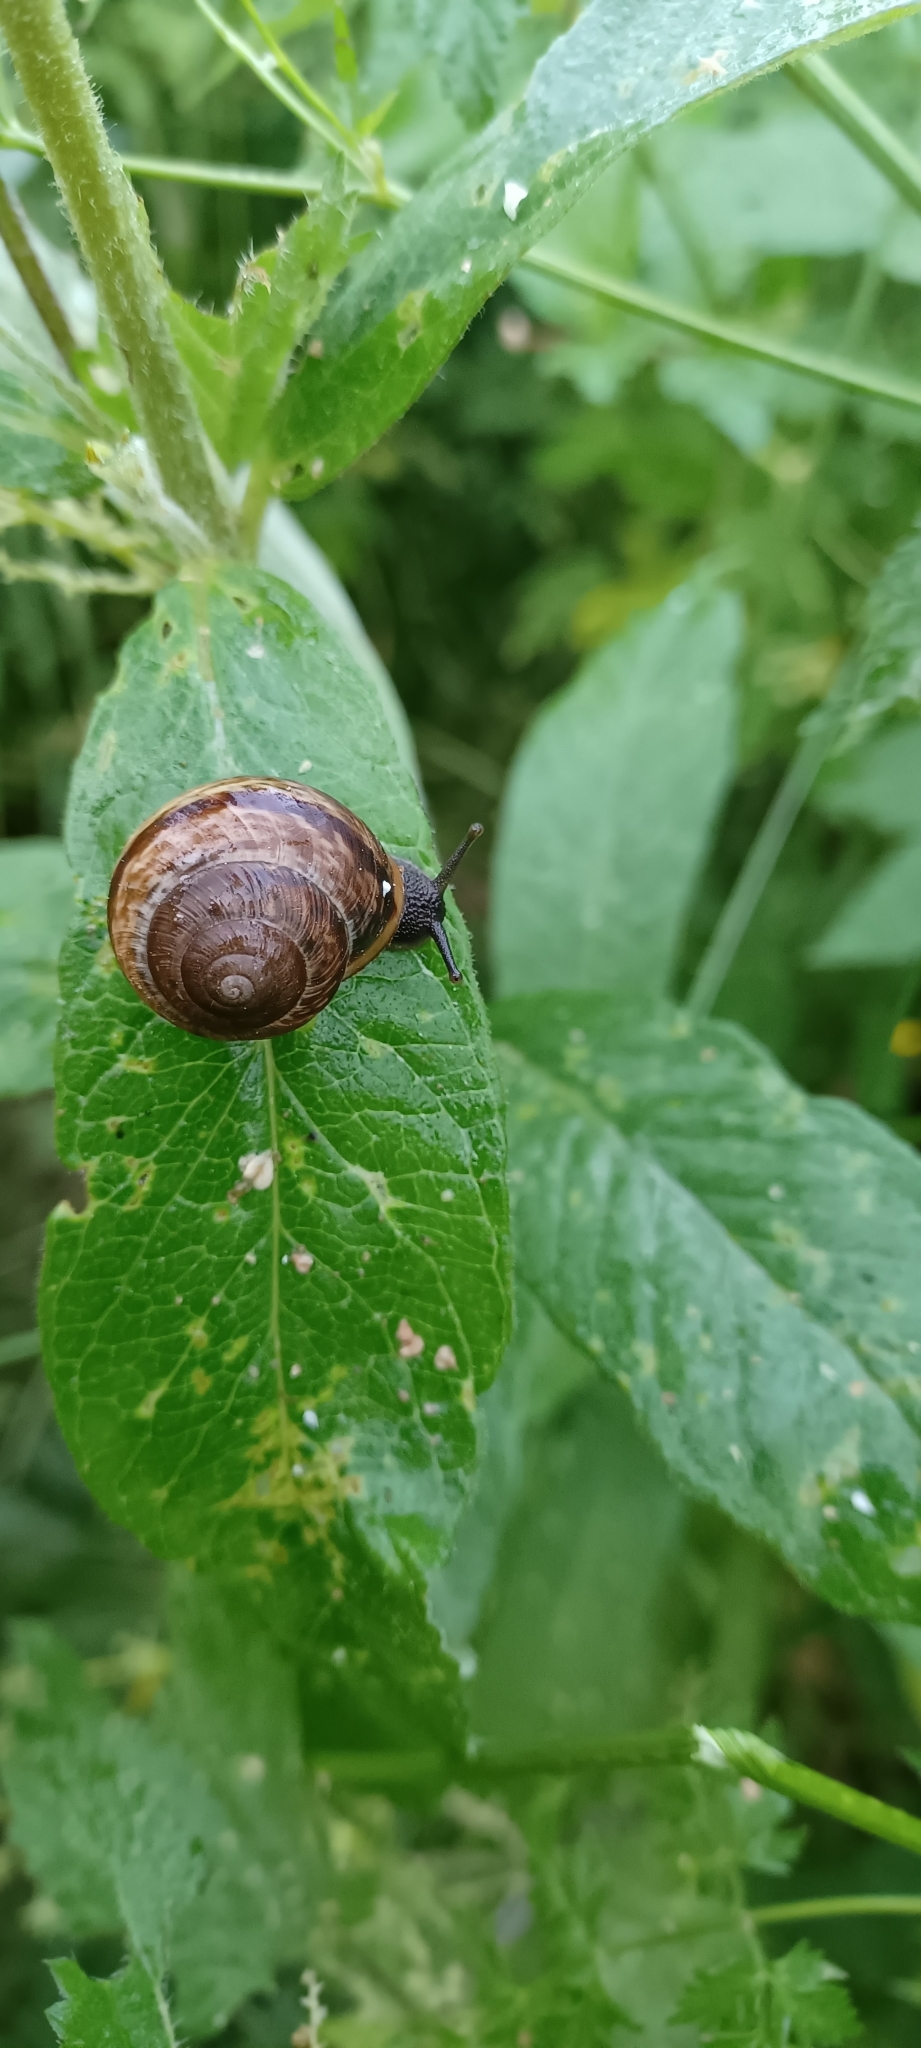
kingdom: Animalia
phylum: Mollusca
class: Gastropoda
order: Stylommatophora
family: Helicidae
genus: Arianta
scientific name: Arianta arbustorum
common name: Copse snail
